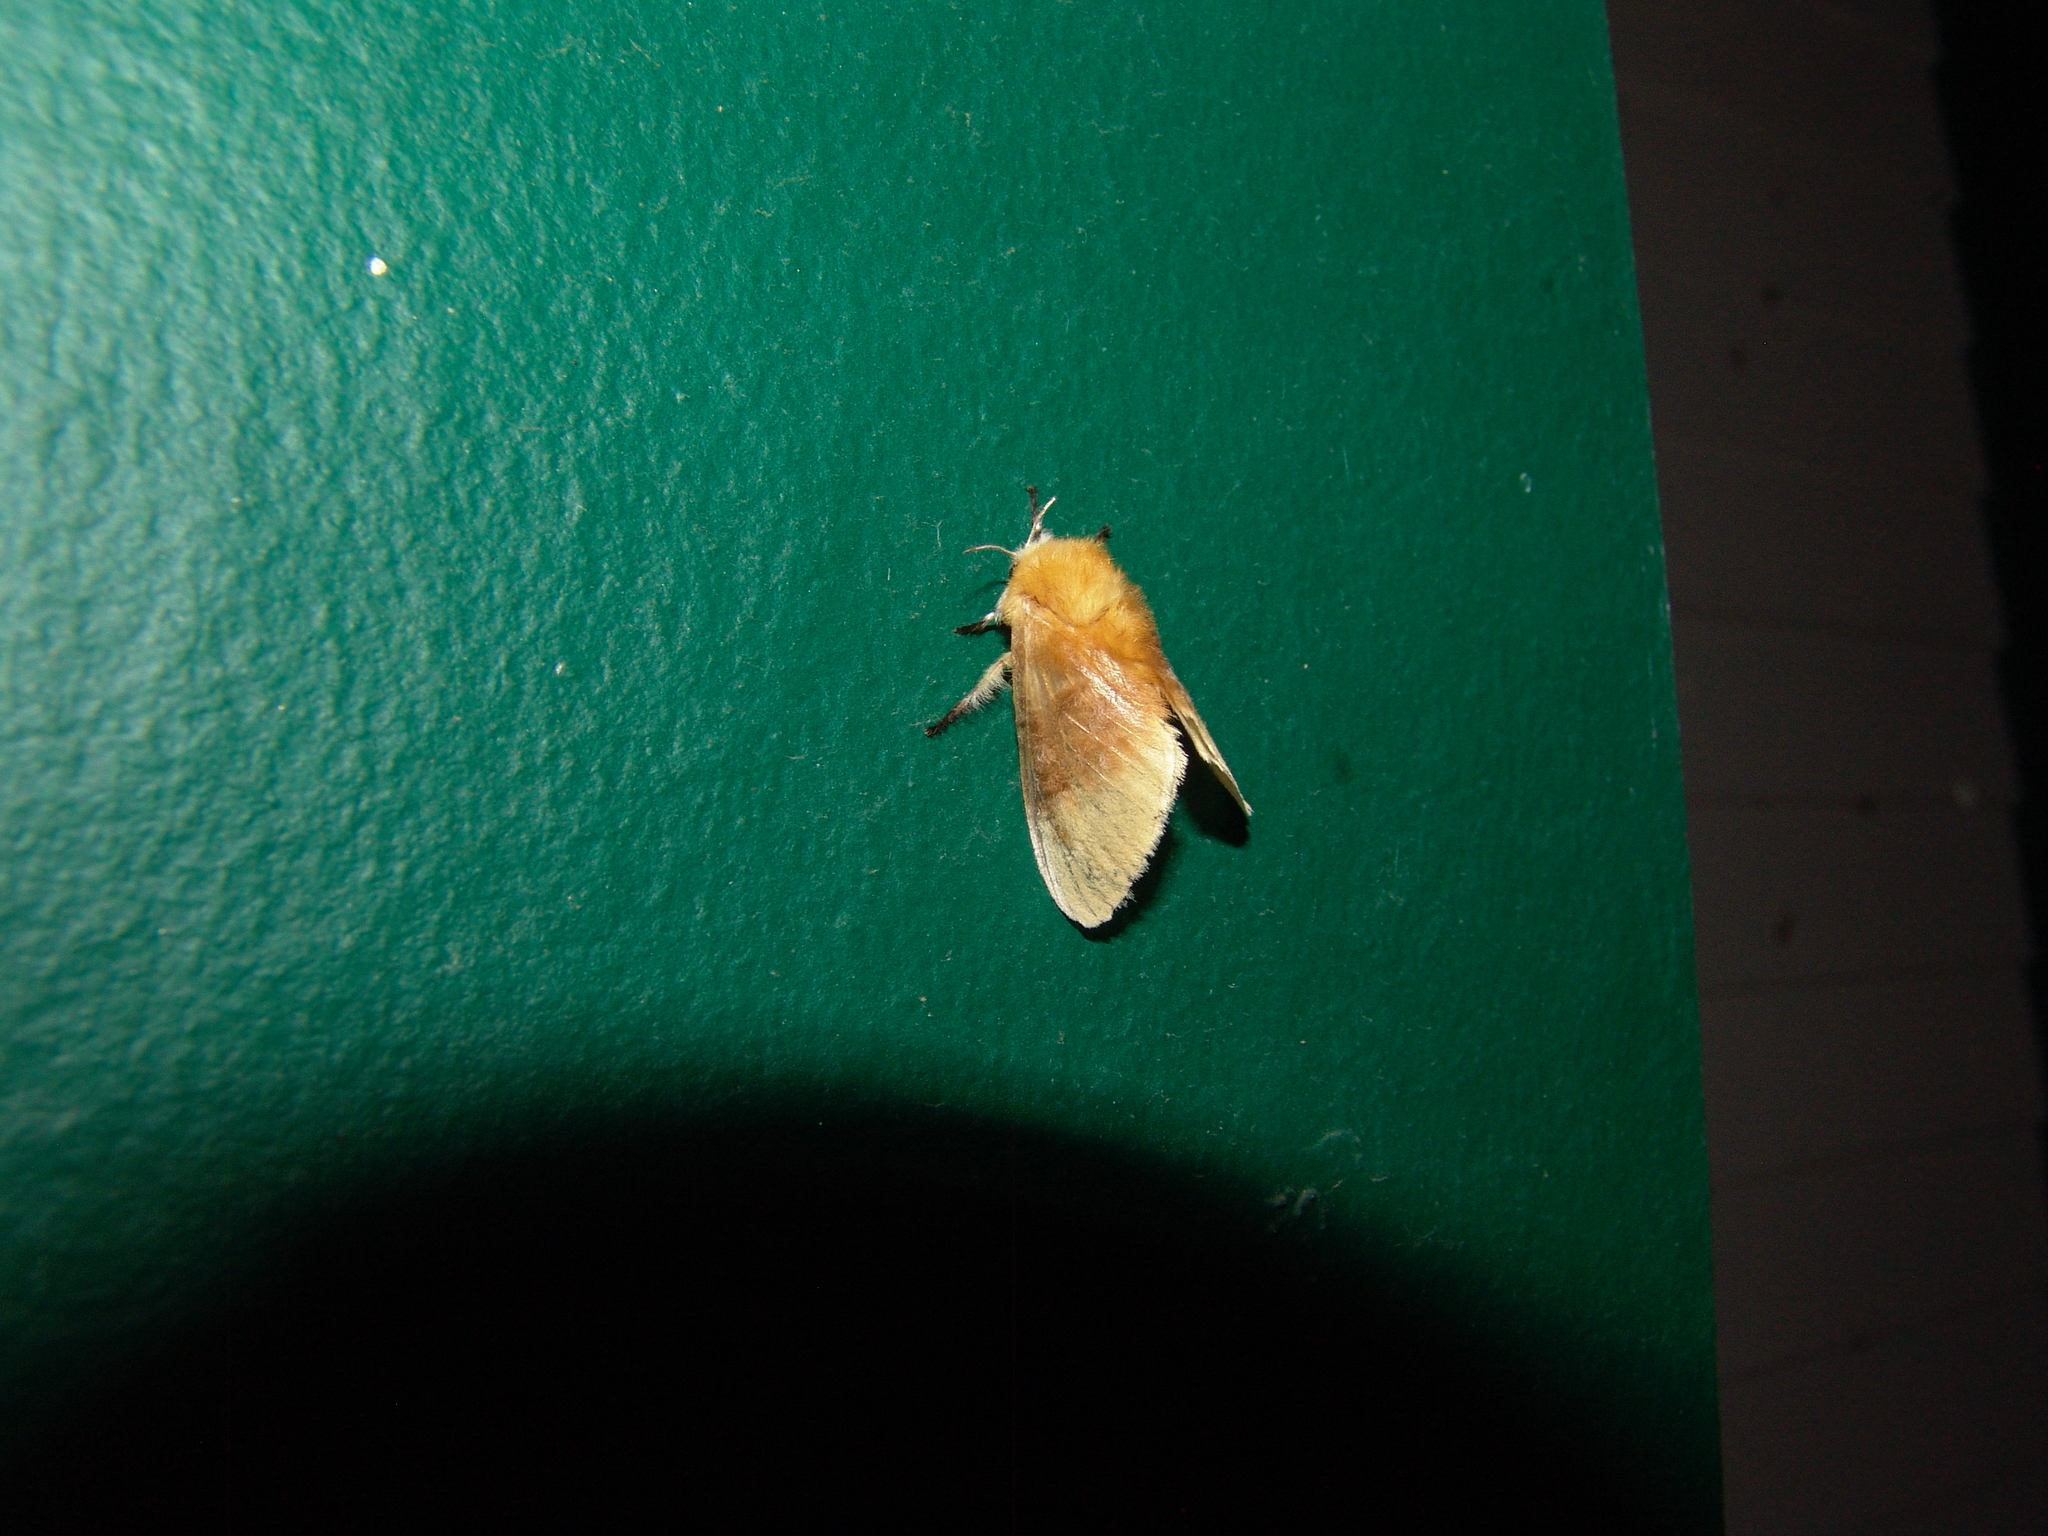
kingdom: Animalia
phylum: Arthropoda
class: Insecta
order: Lepidoptera
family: Megalopygidae
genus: Megalopyge
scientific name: Megalopyge opercularis
